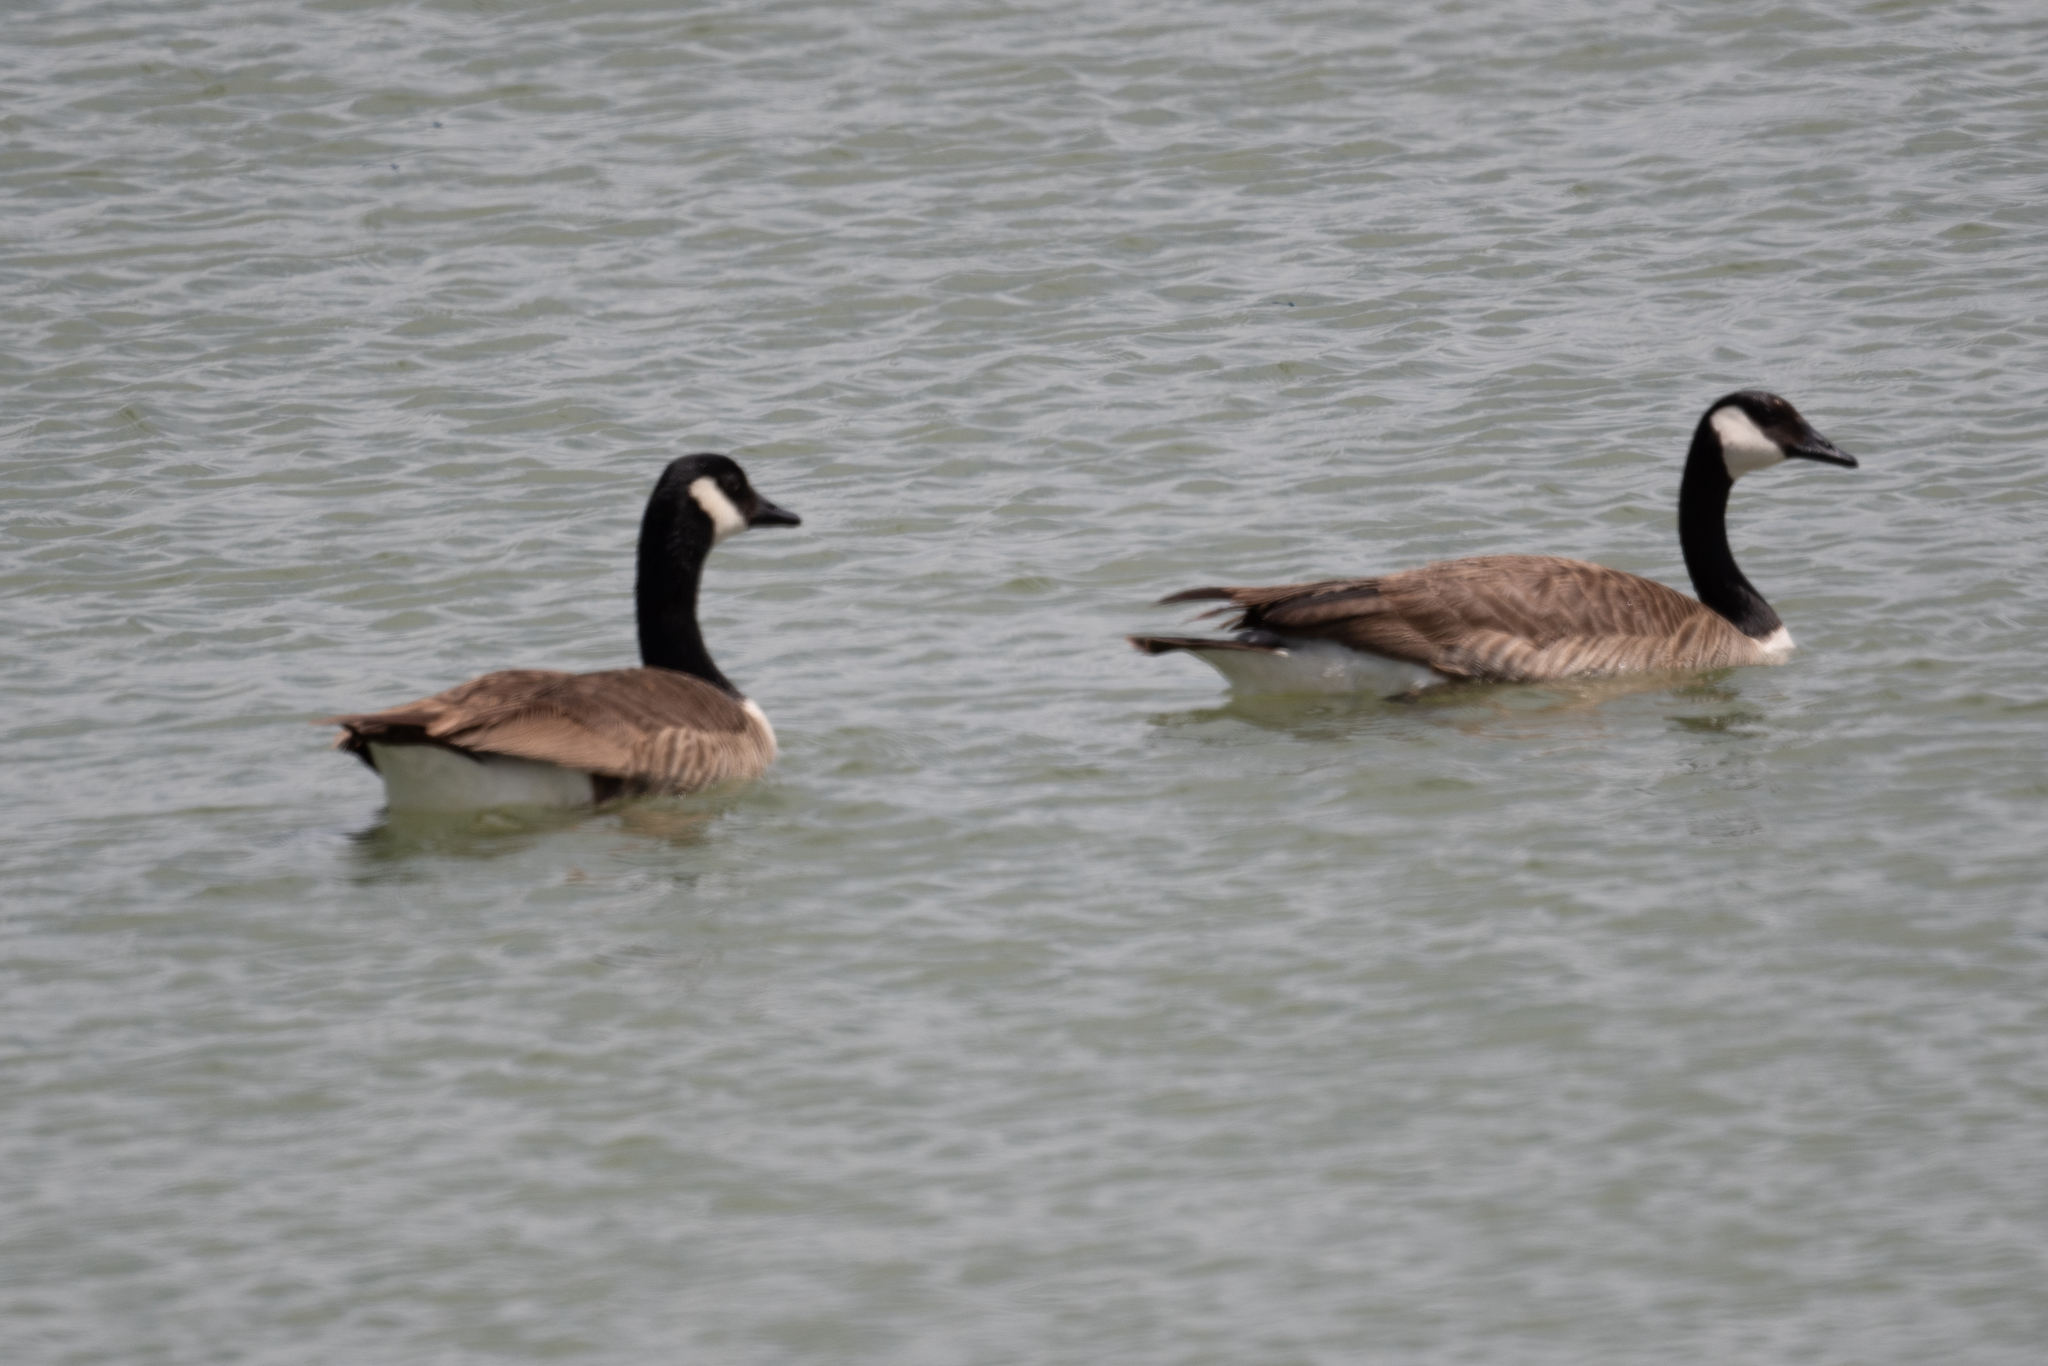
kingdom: Animalia
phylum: Chordata
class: Aves
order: Anseriformes
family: Anatidae
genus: Branta
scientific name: Branta canadensis
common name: Canada goose
